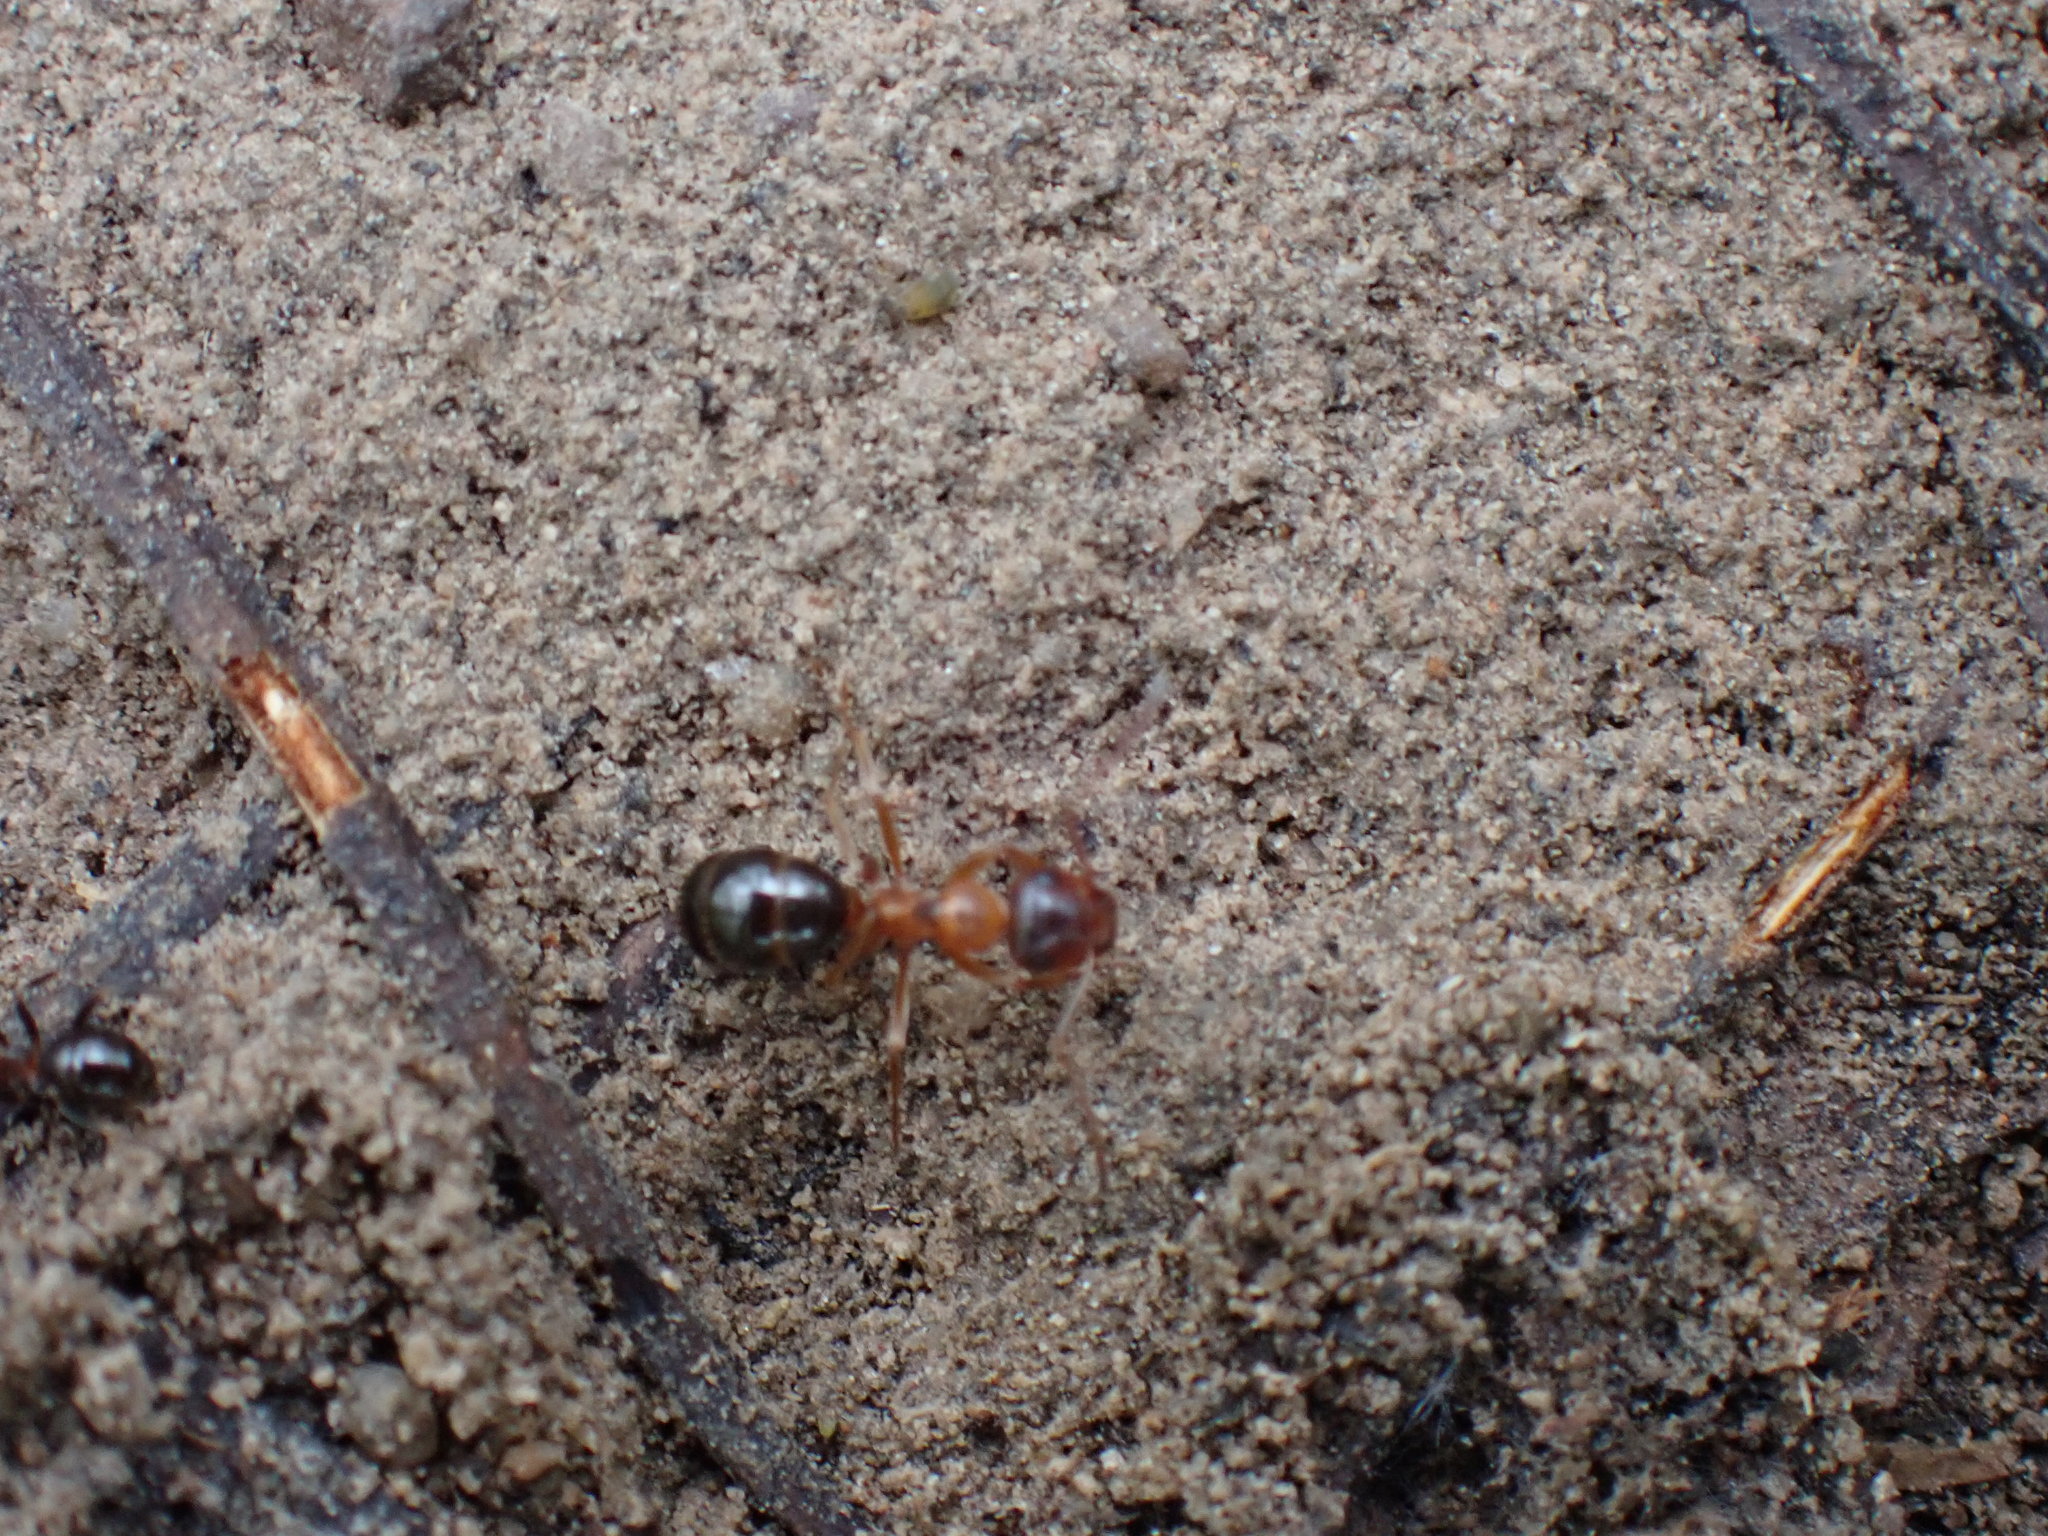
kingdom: Animalia
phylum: Arthropoda
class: Insecta
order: Hymenoptera
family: Formicidae
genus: Formica
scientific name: Formica subpolita
